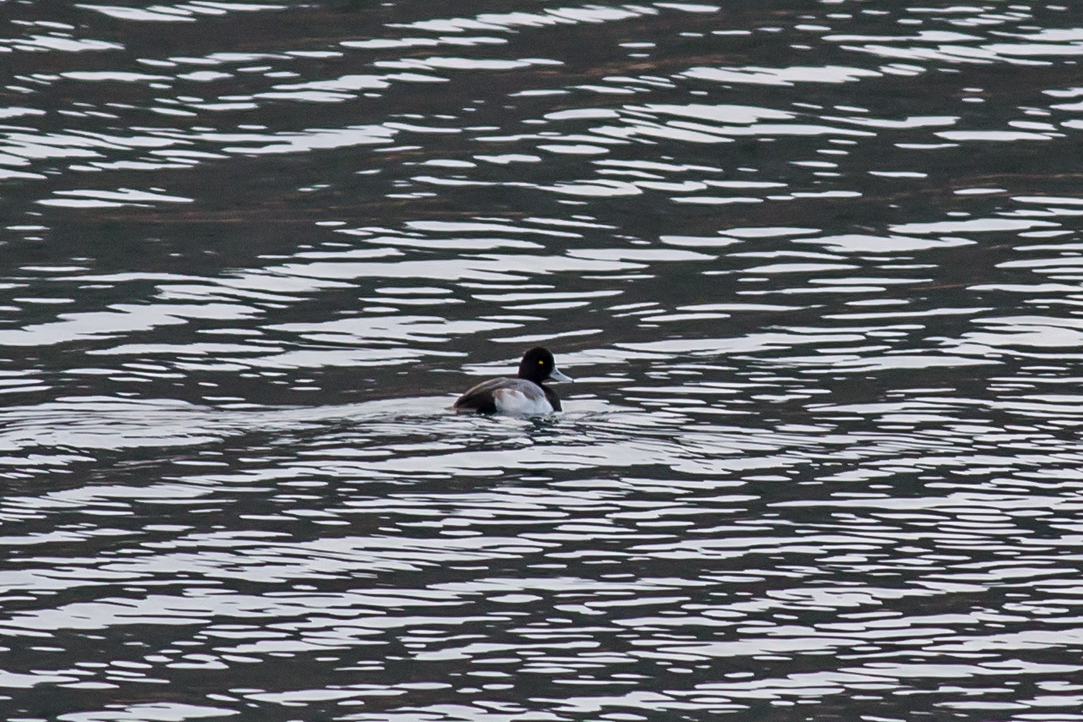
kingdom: Animalia
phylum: Chordata
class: Aves
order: Anseriformes
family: Anatidae
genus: Aythya
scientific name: Aythya affinis
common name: Lesser scaup
